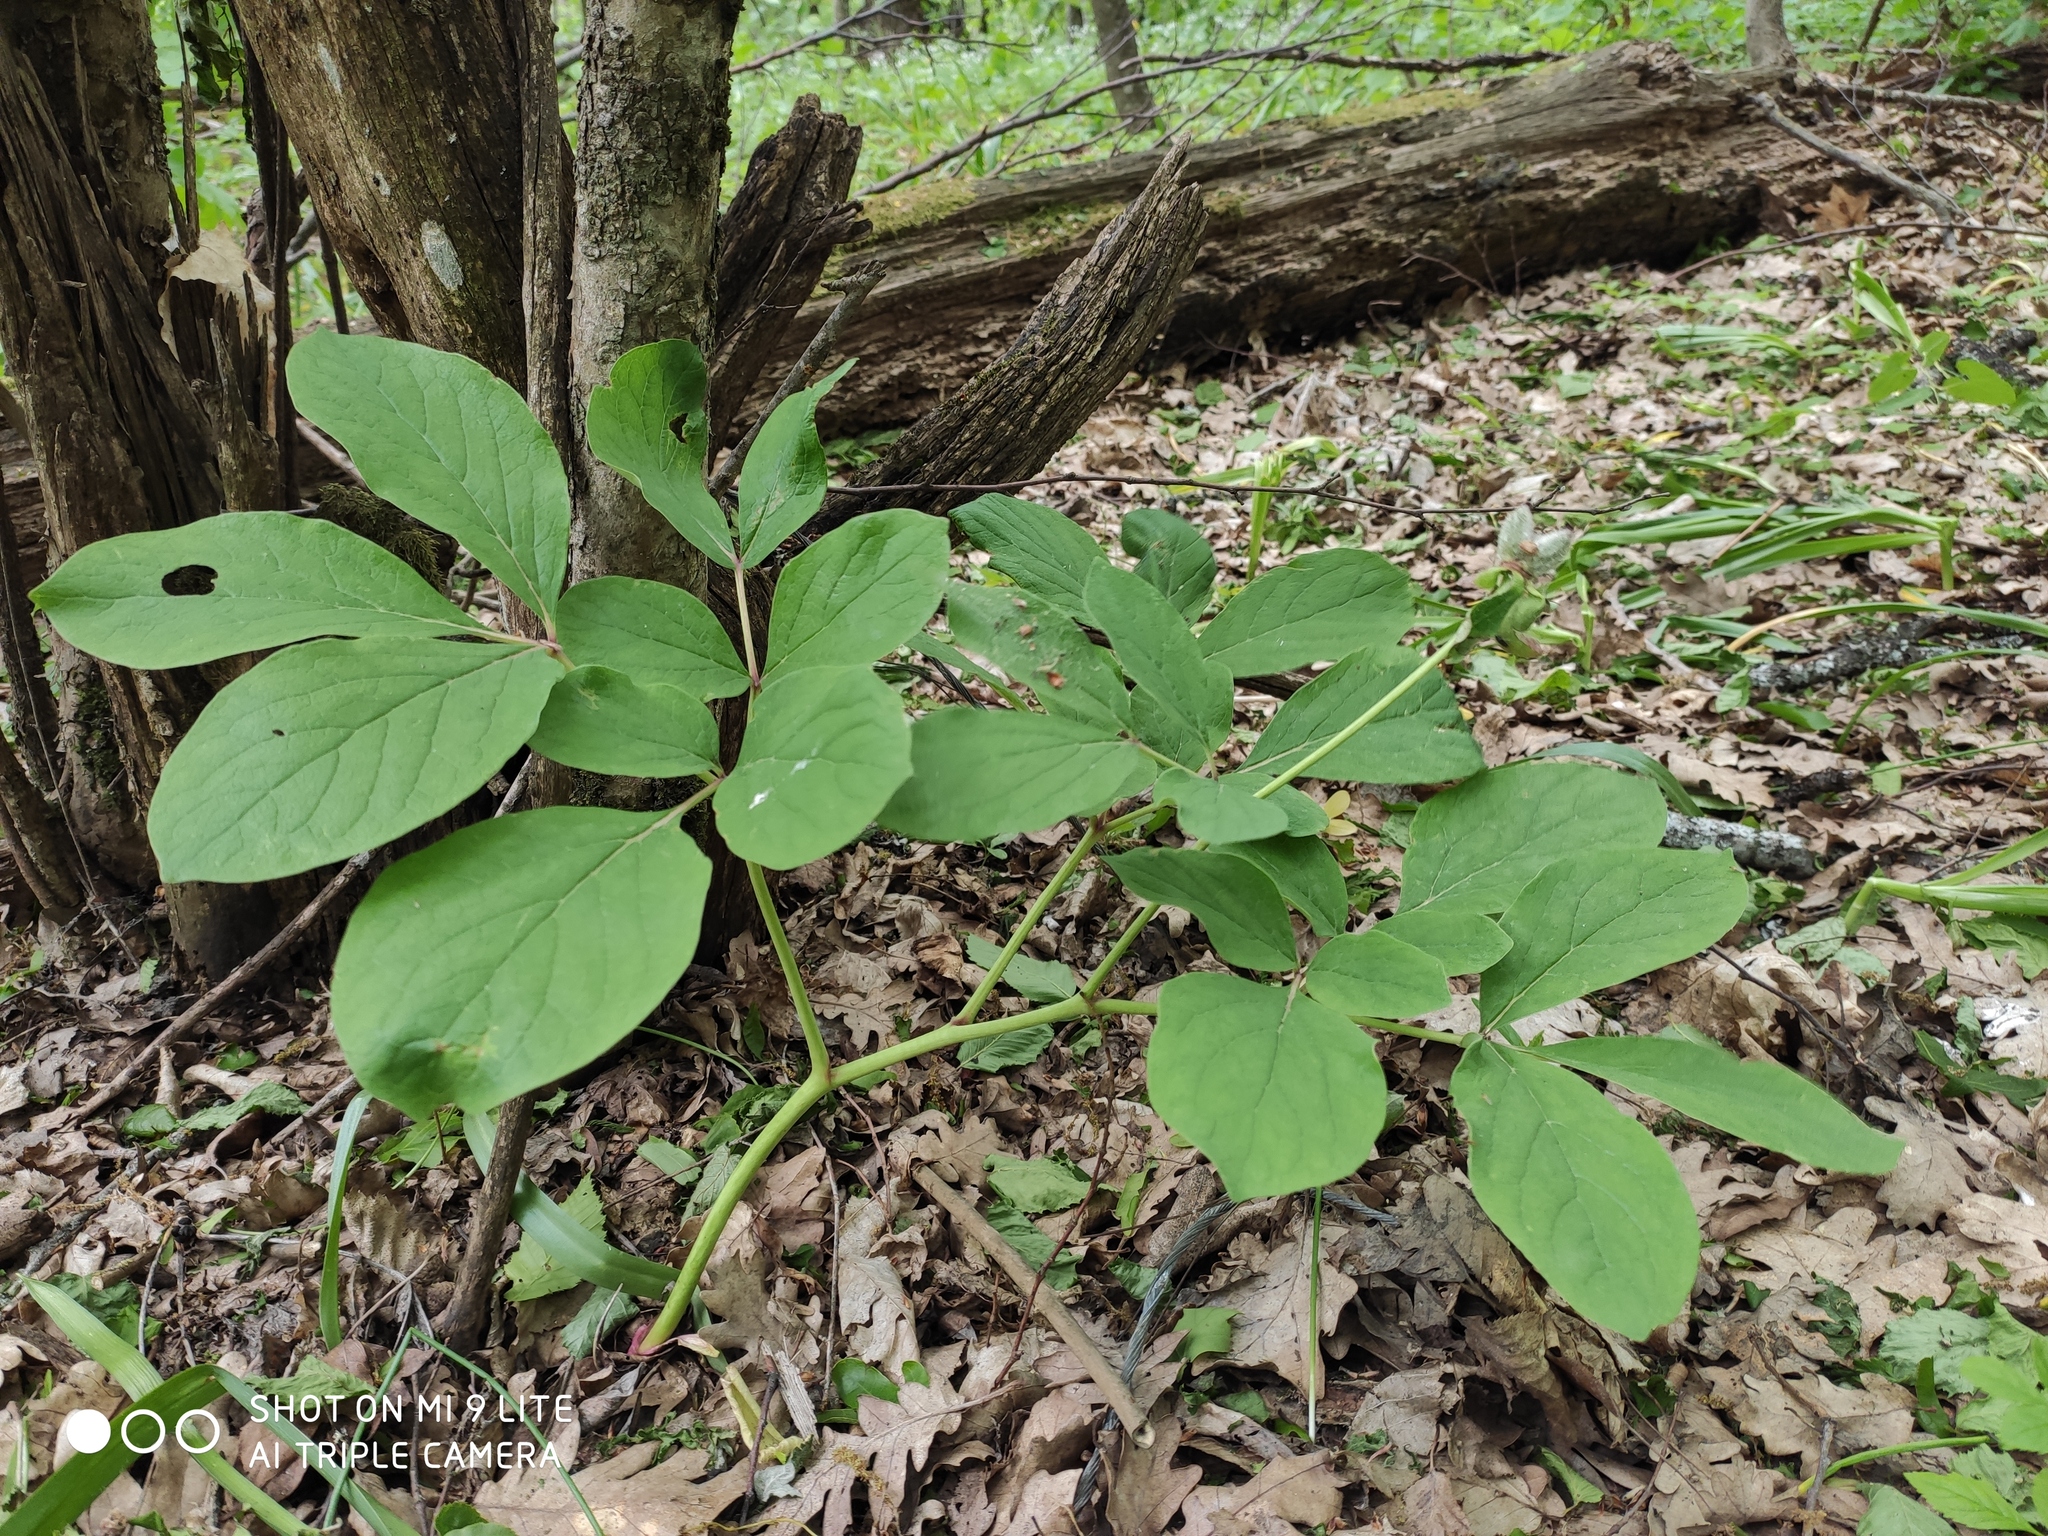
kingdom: Plantae
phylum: Tracheophyta
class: Magnoliopsida
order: Saxifragales
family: Paeoniaceae
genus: Paeonia
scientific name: Paeonia caucasica
